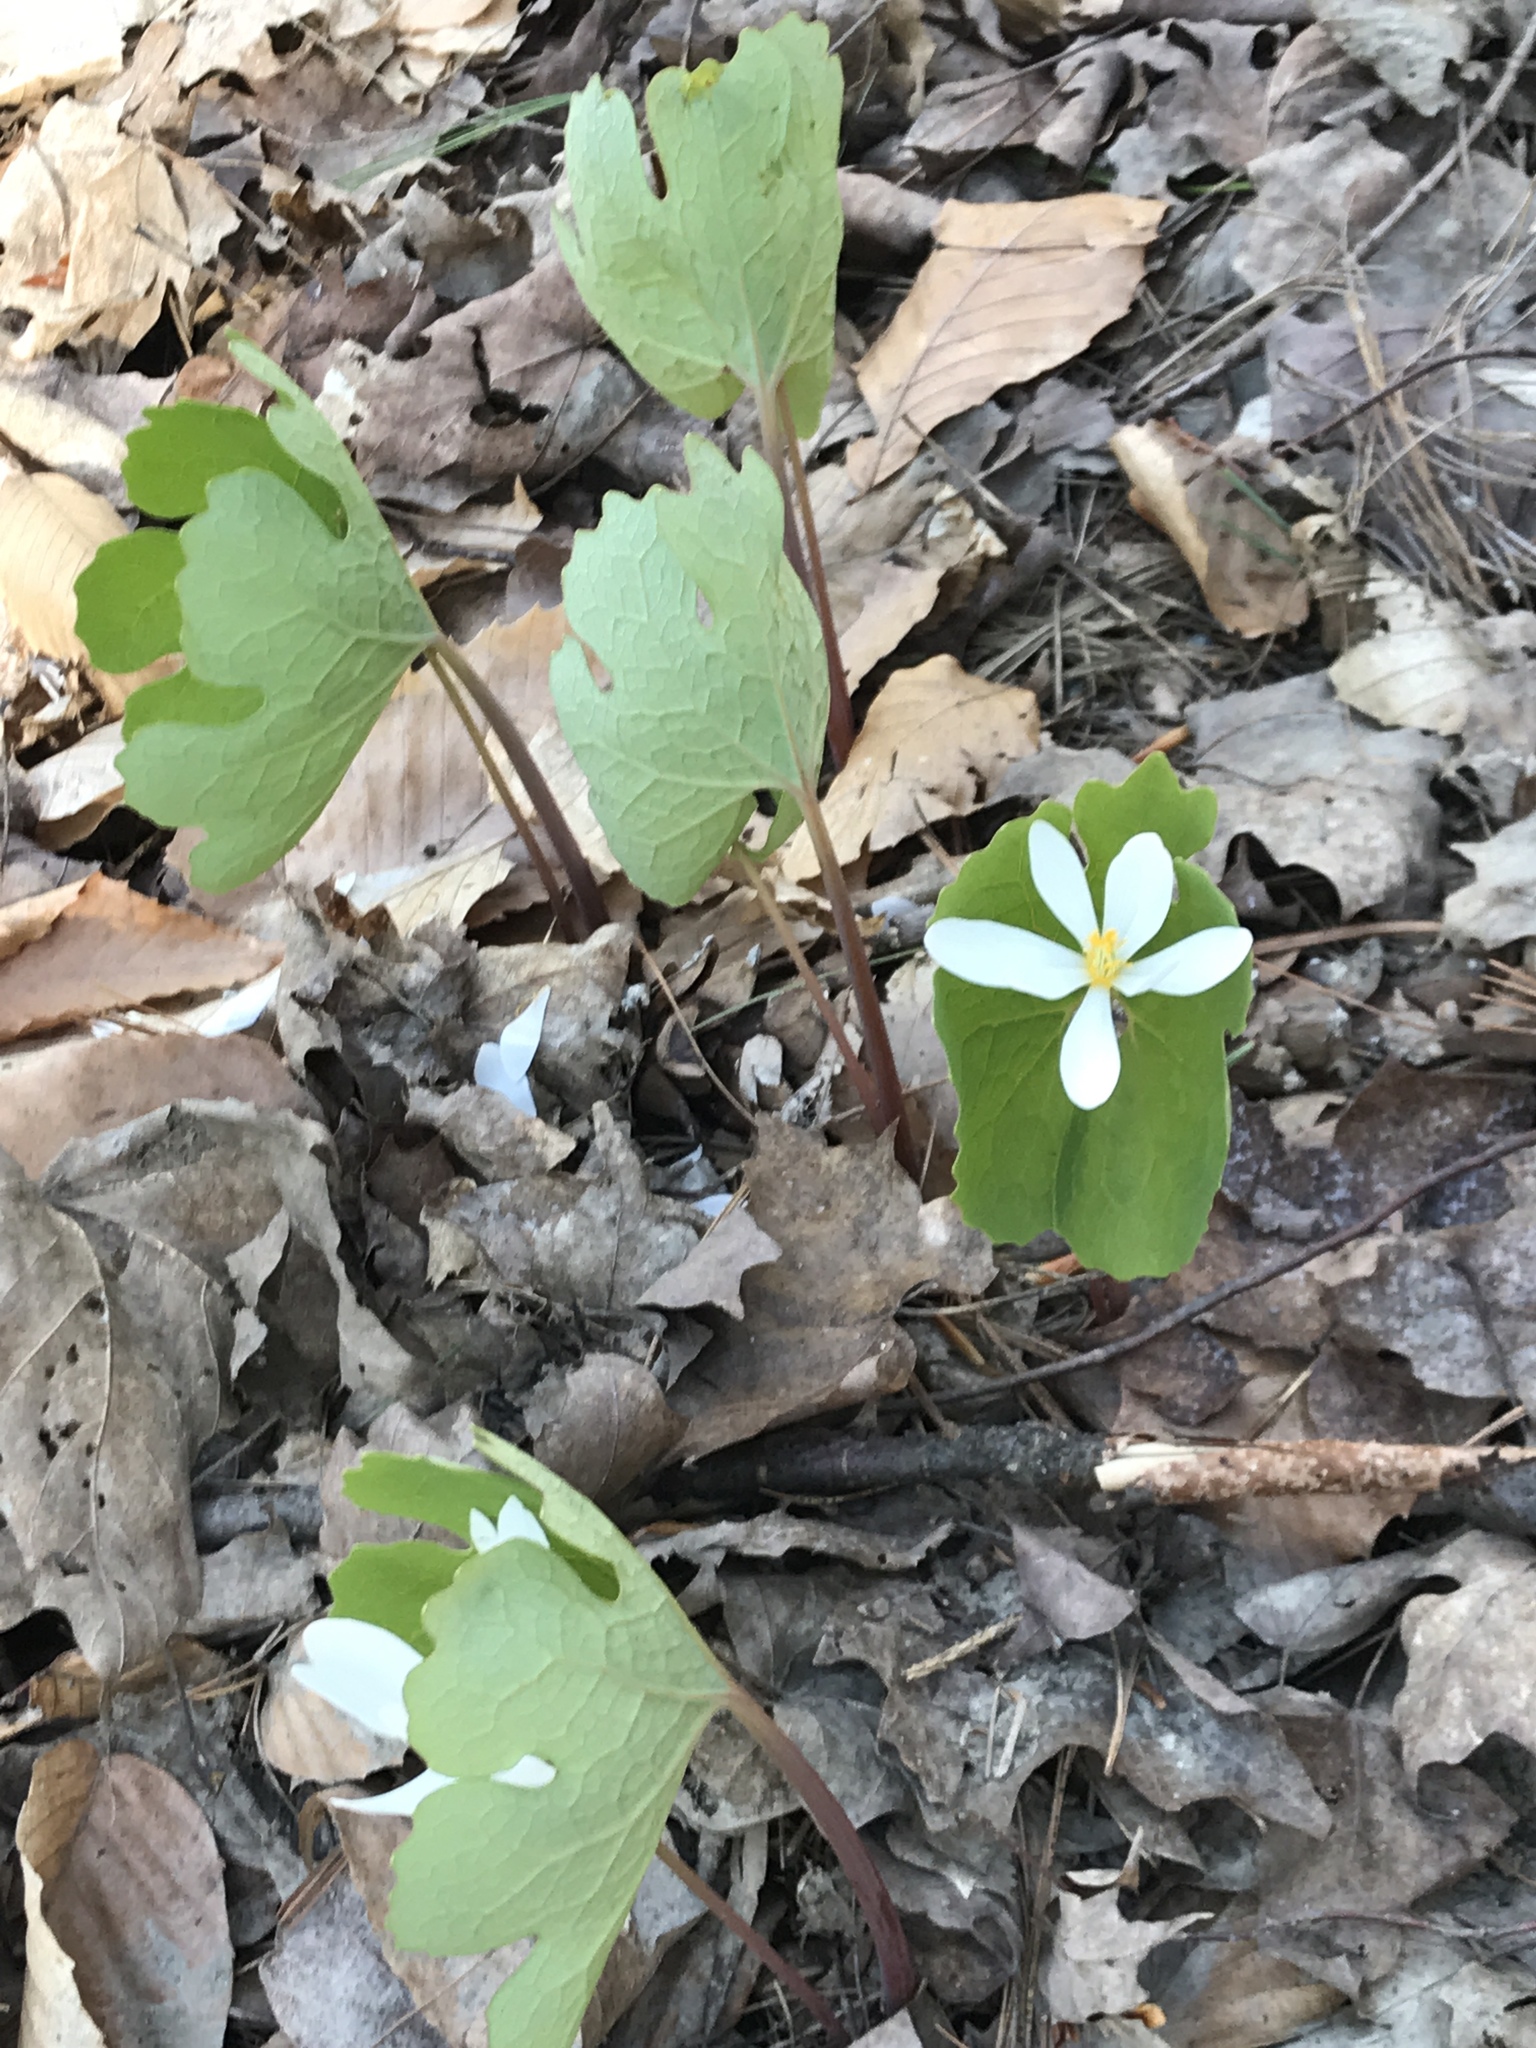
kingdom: Plantae
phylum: Tracheophyta
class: Magnoliopsida
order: Ranunculales
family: Papaveraceae
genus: Sanguinaria
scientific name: Sanguinaria canadensis
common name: Bloodroot
